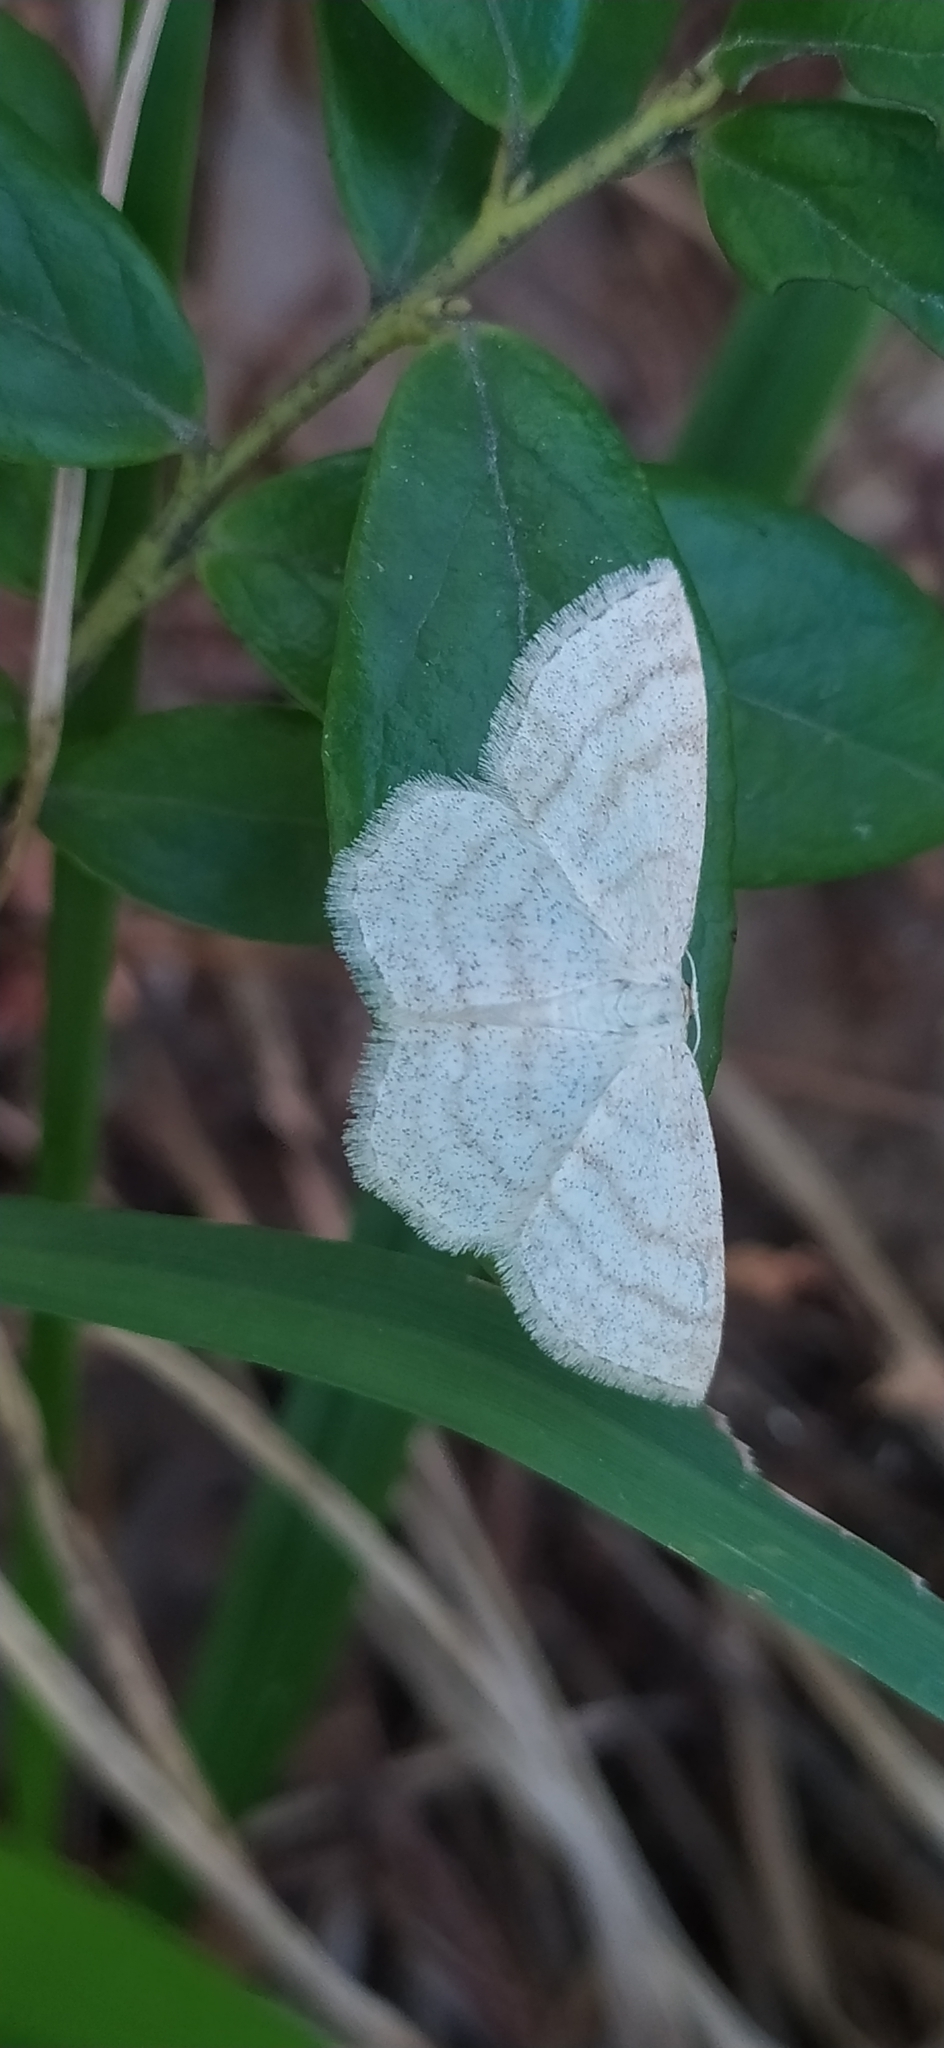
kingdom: Animalia
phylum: Arthropoda
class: Insecta
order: Lepidoptera
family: Geometridae
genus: Scopula
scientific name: Scopula ternata
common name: Smoky wave
